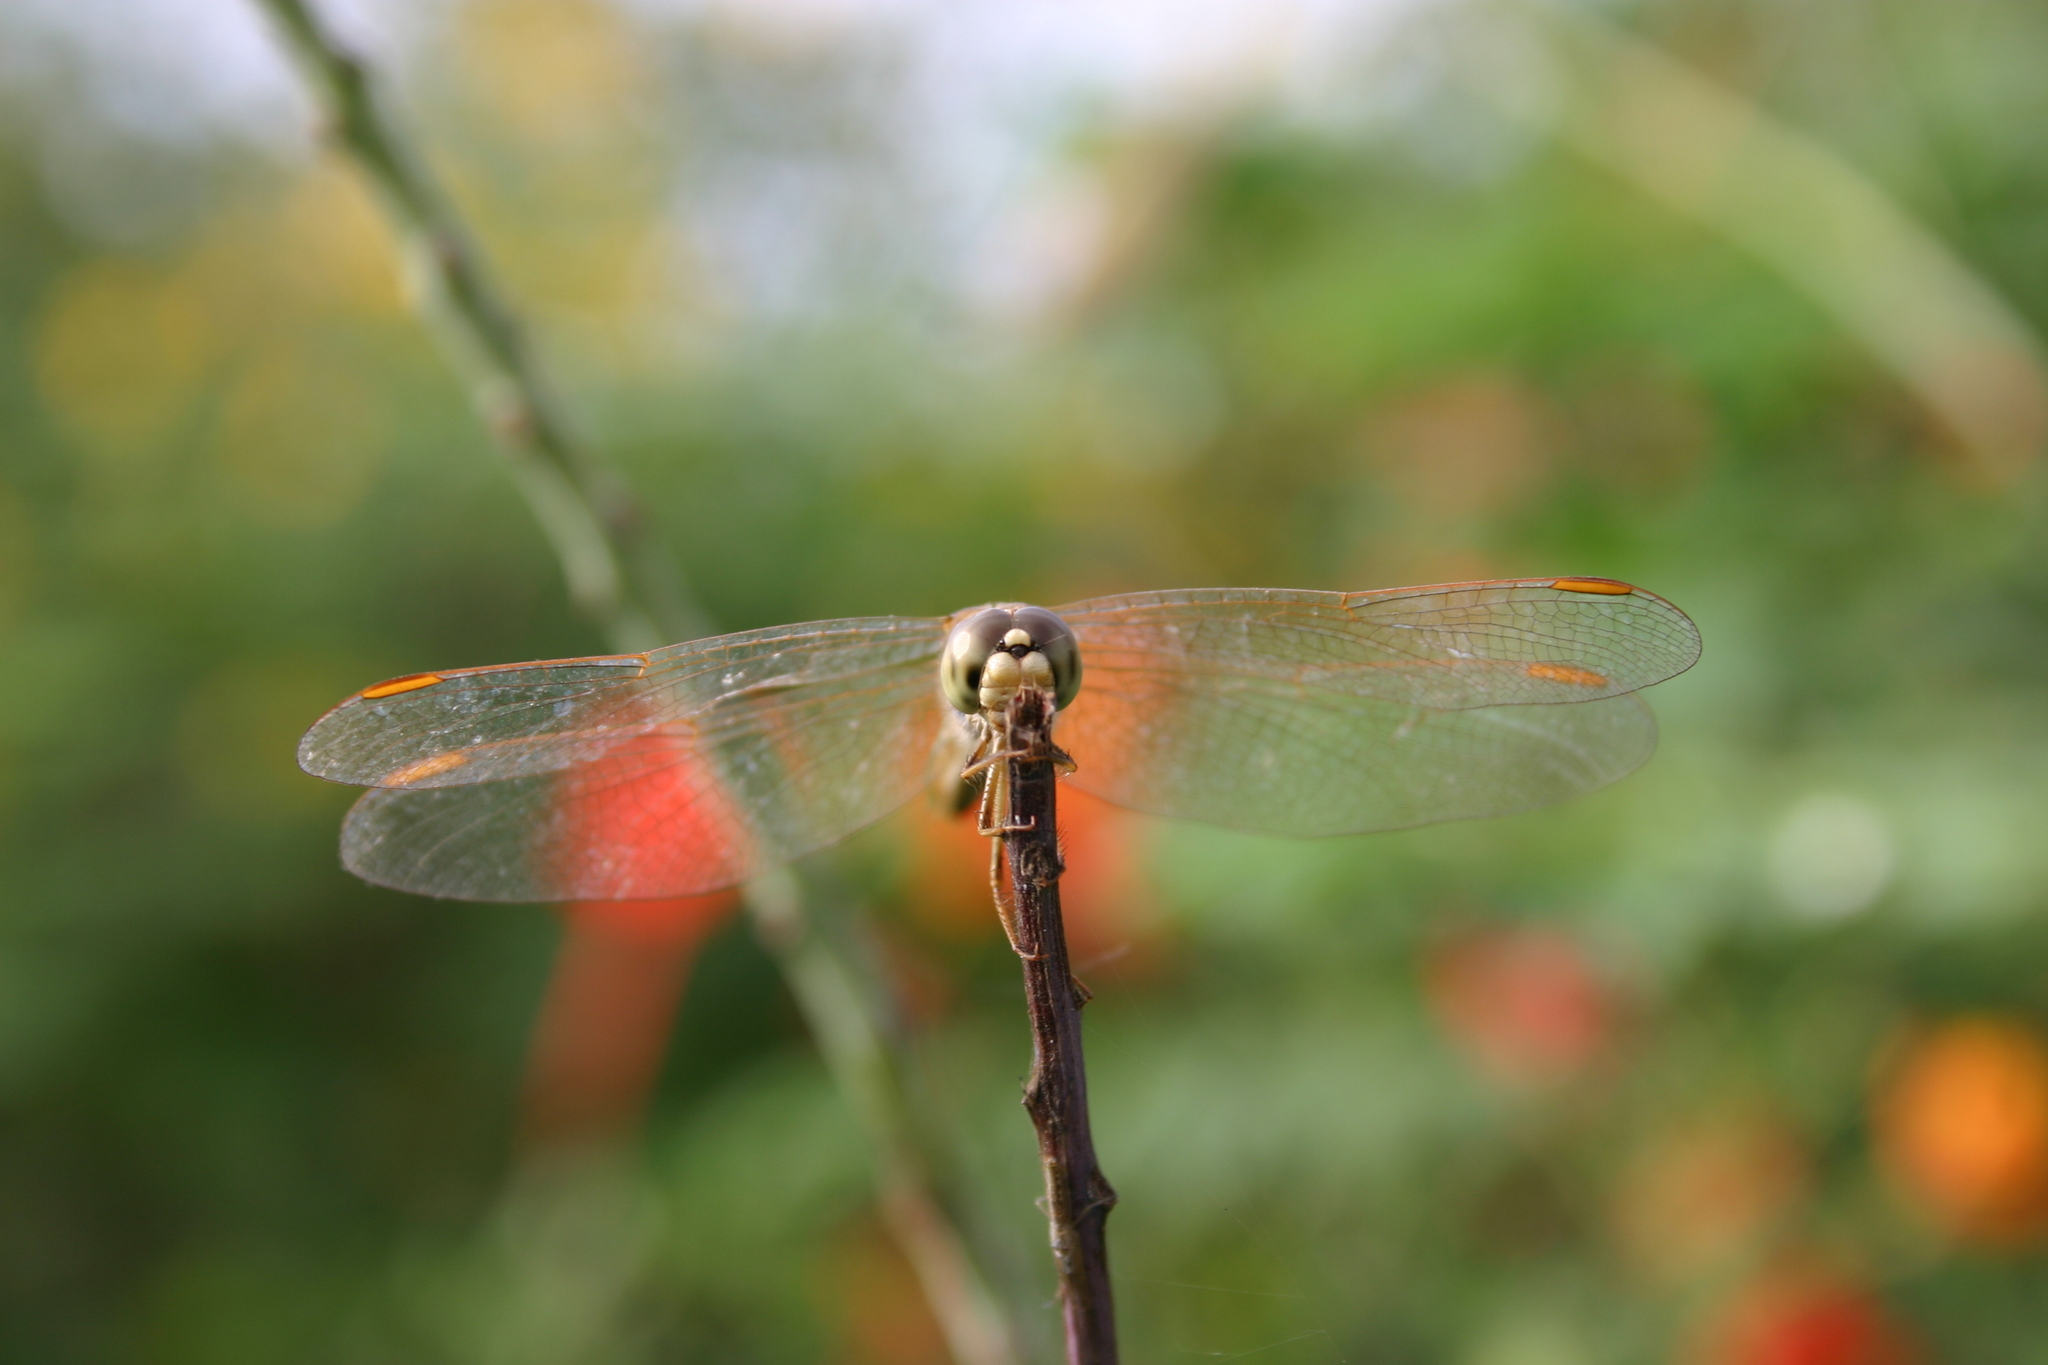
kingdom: Animalia
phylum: Arthropoda
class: Insecta
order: Odonata
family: Libellulidae
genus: Brachythemis
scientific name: Brachythemis contaminata
